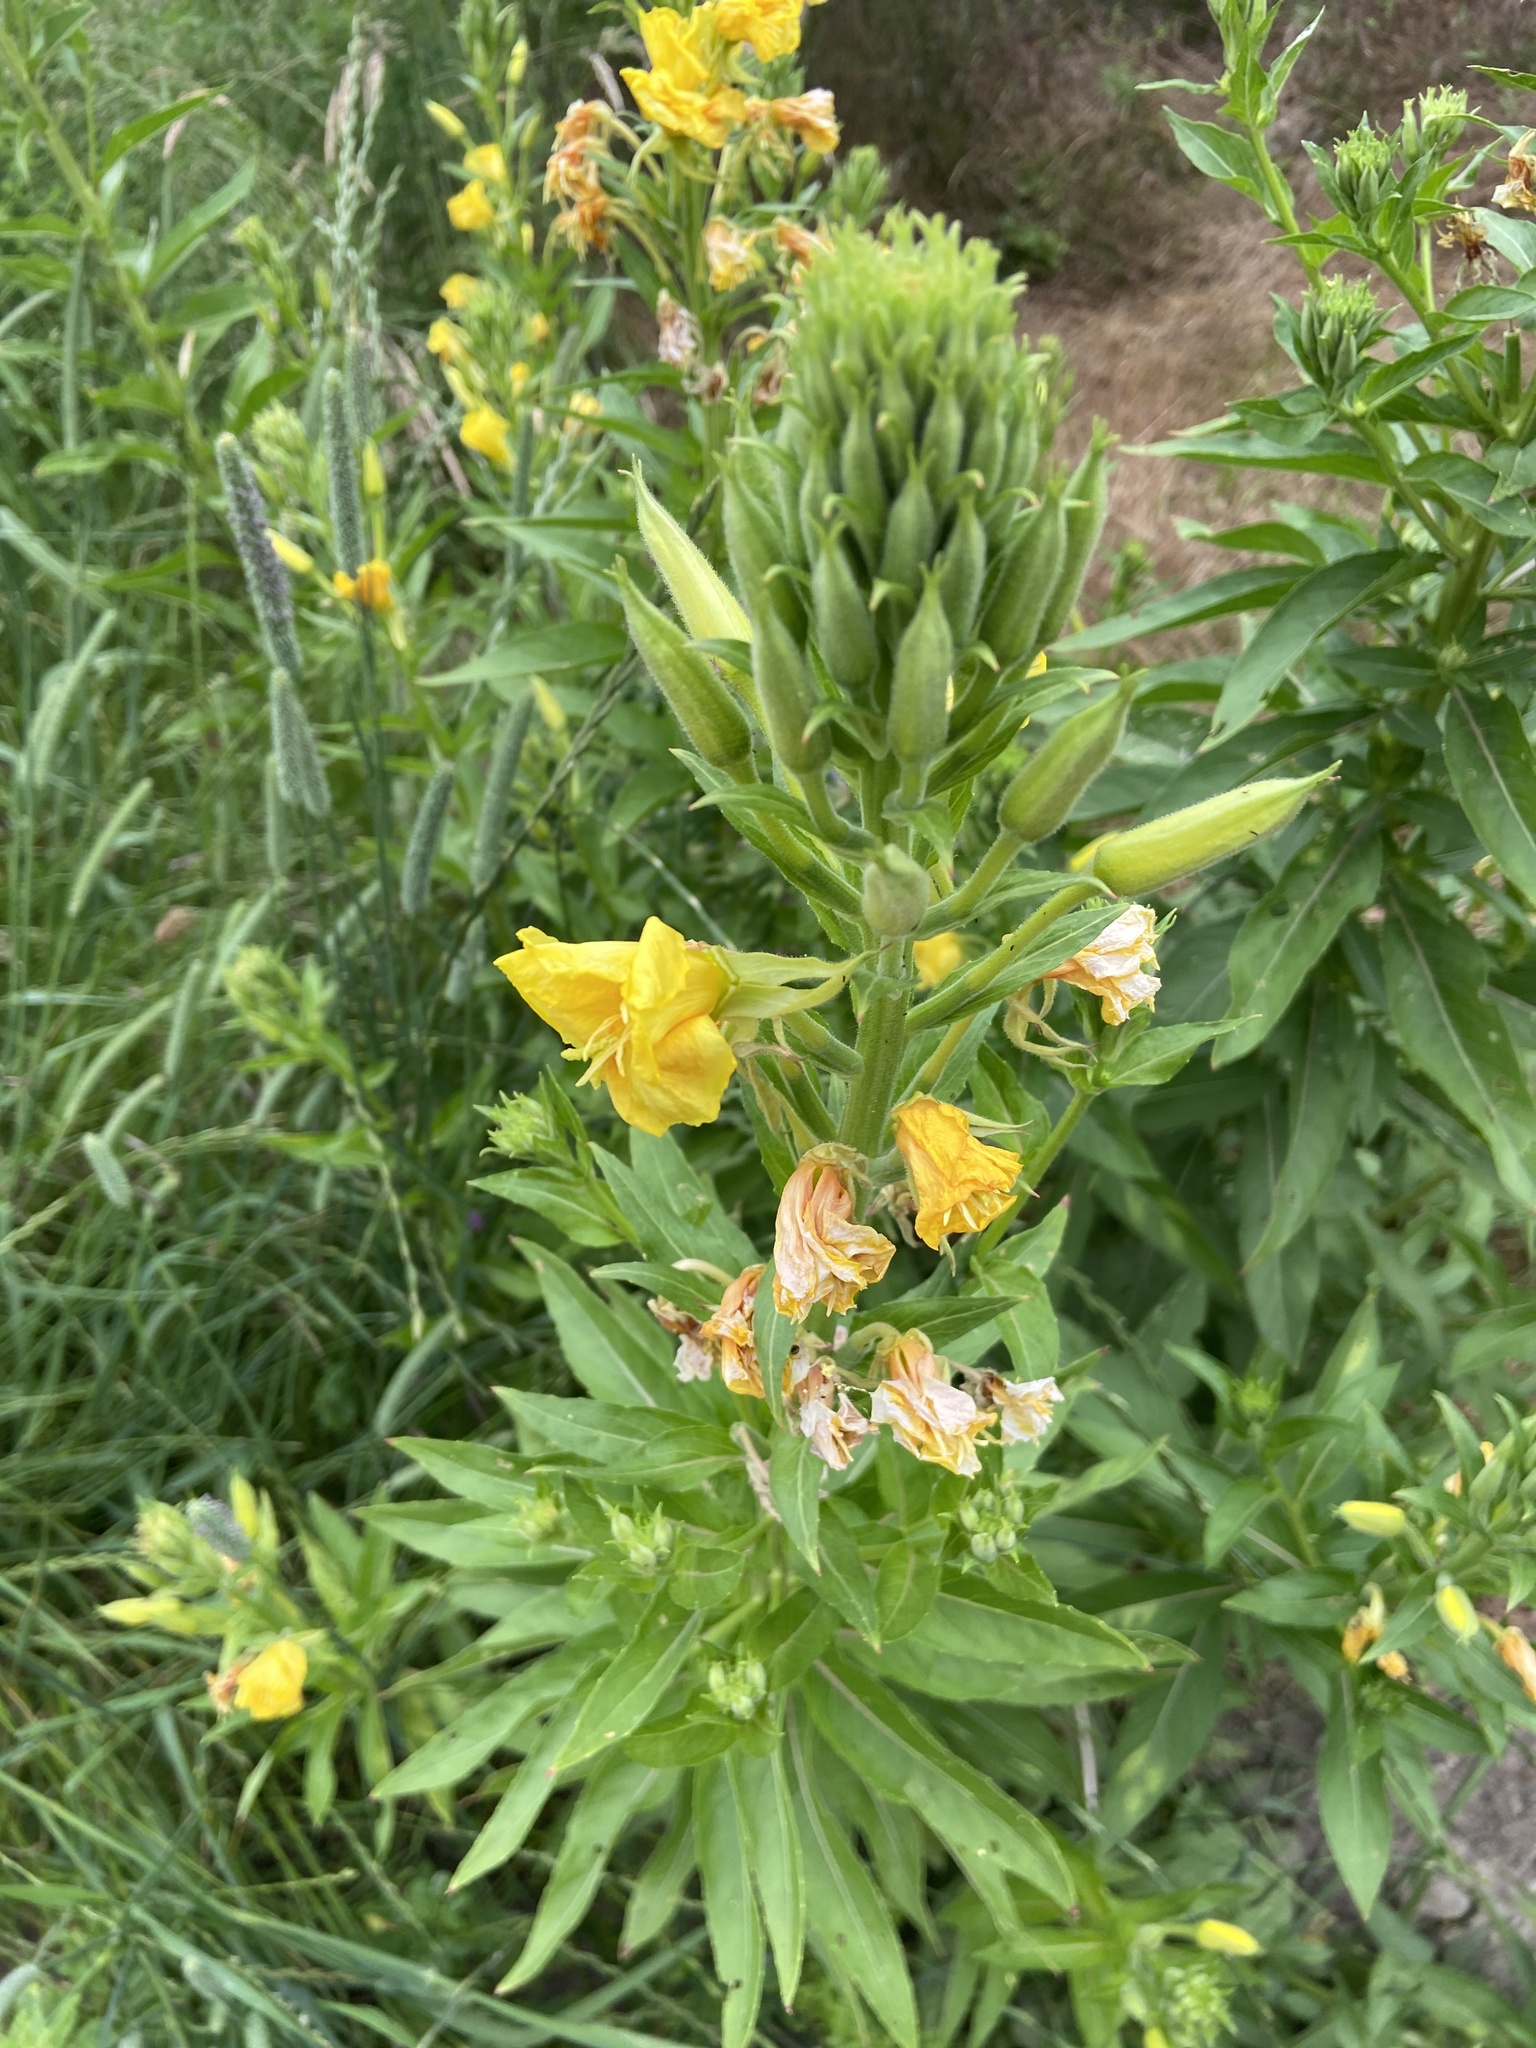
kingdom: Plantae
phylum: Tracheophyta
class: Magnoliopsida
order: Myrtales
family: Onagraceae
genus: Oenothera
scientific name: Oenothera biennis
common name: Common evening-primrose
